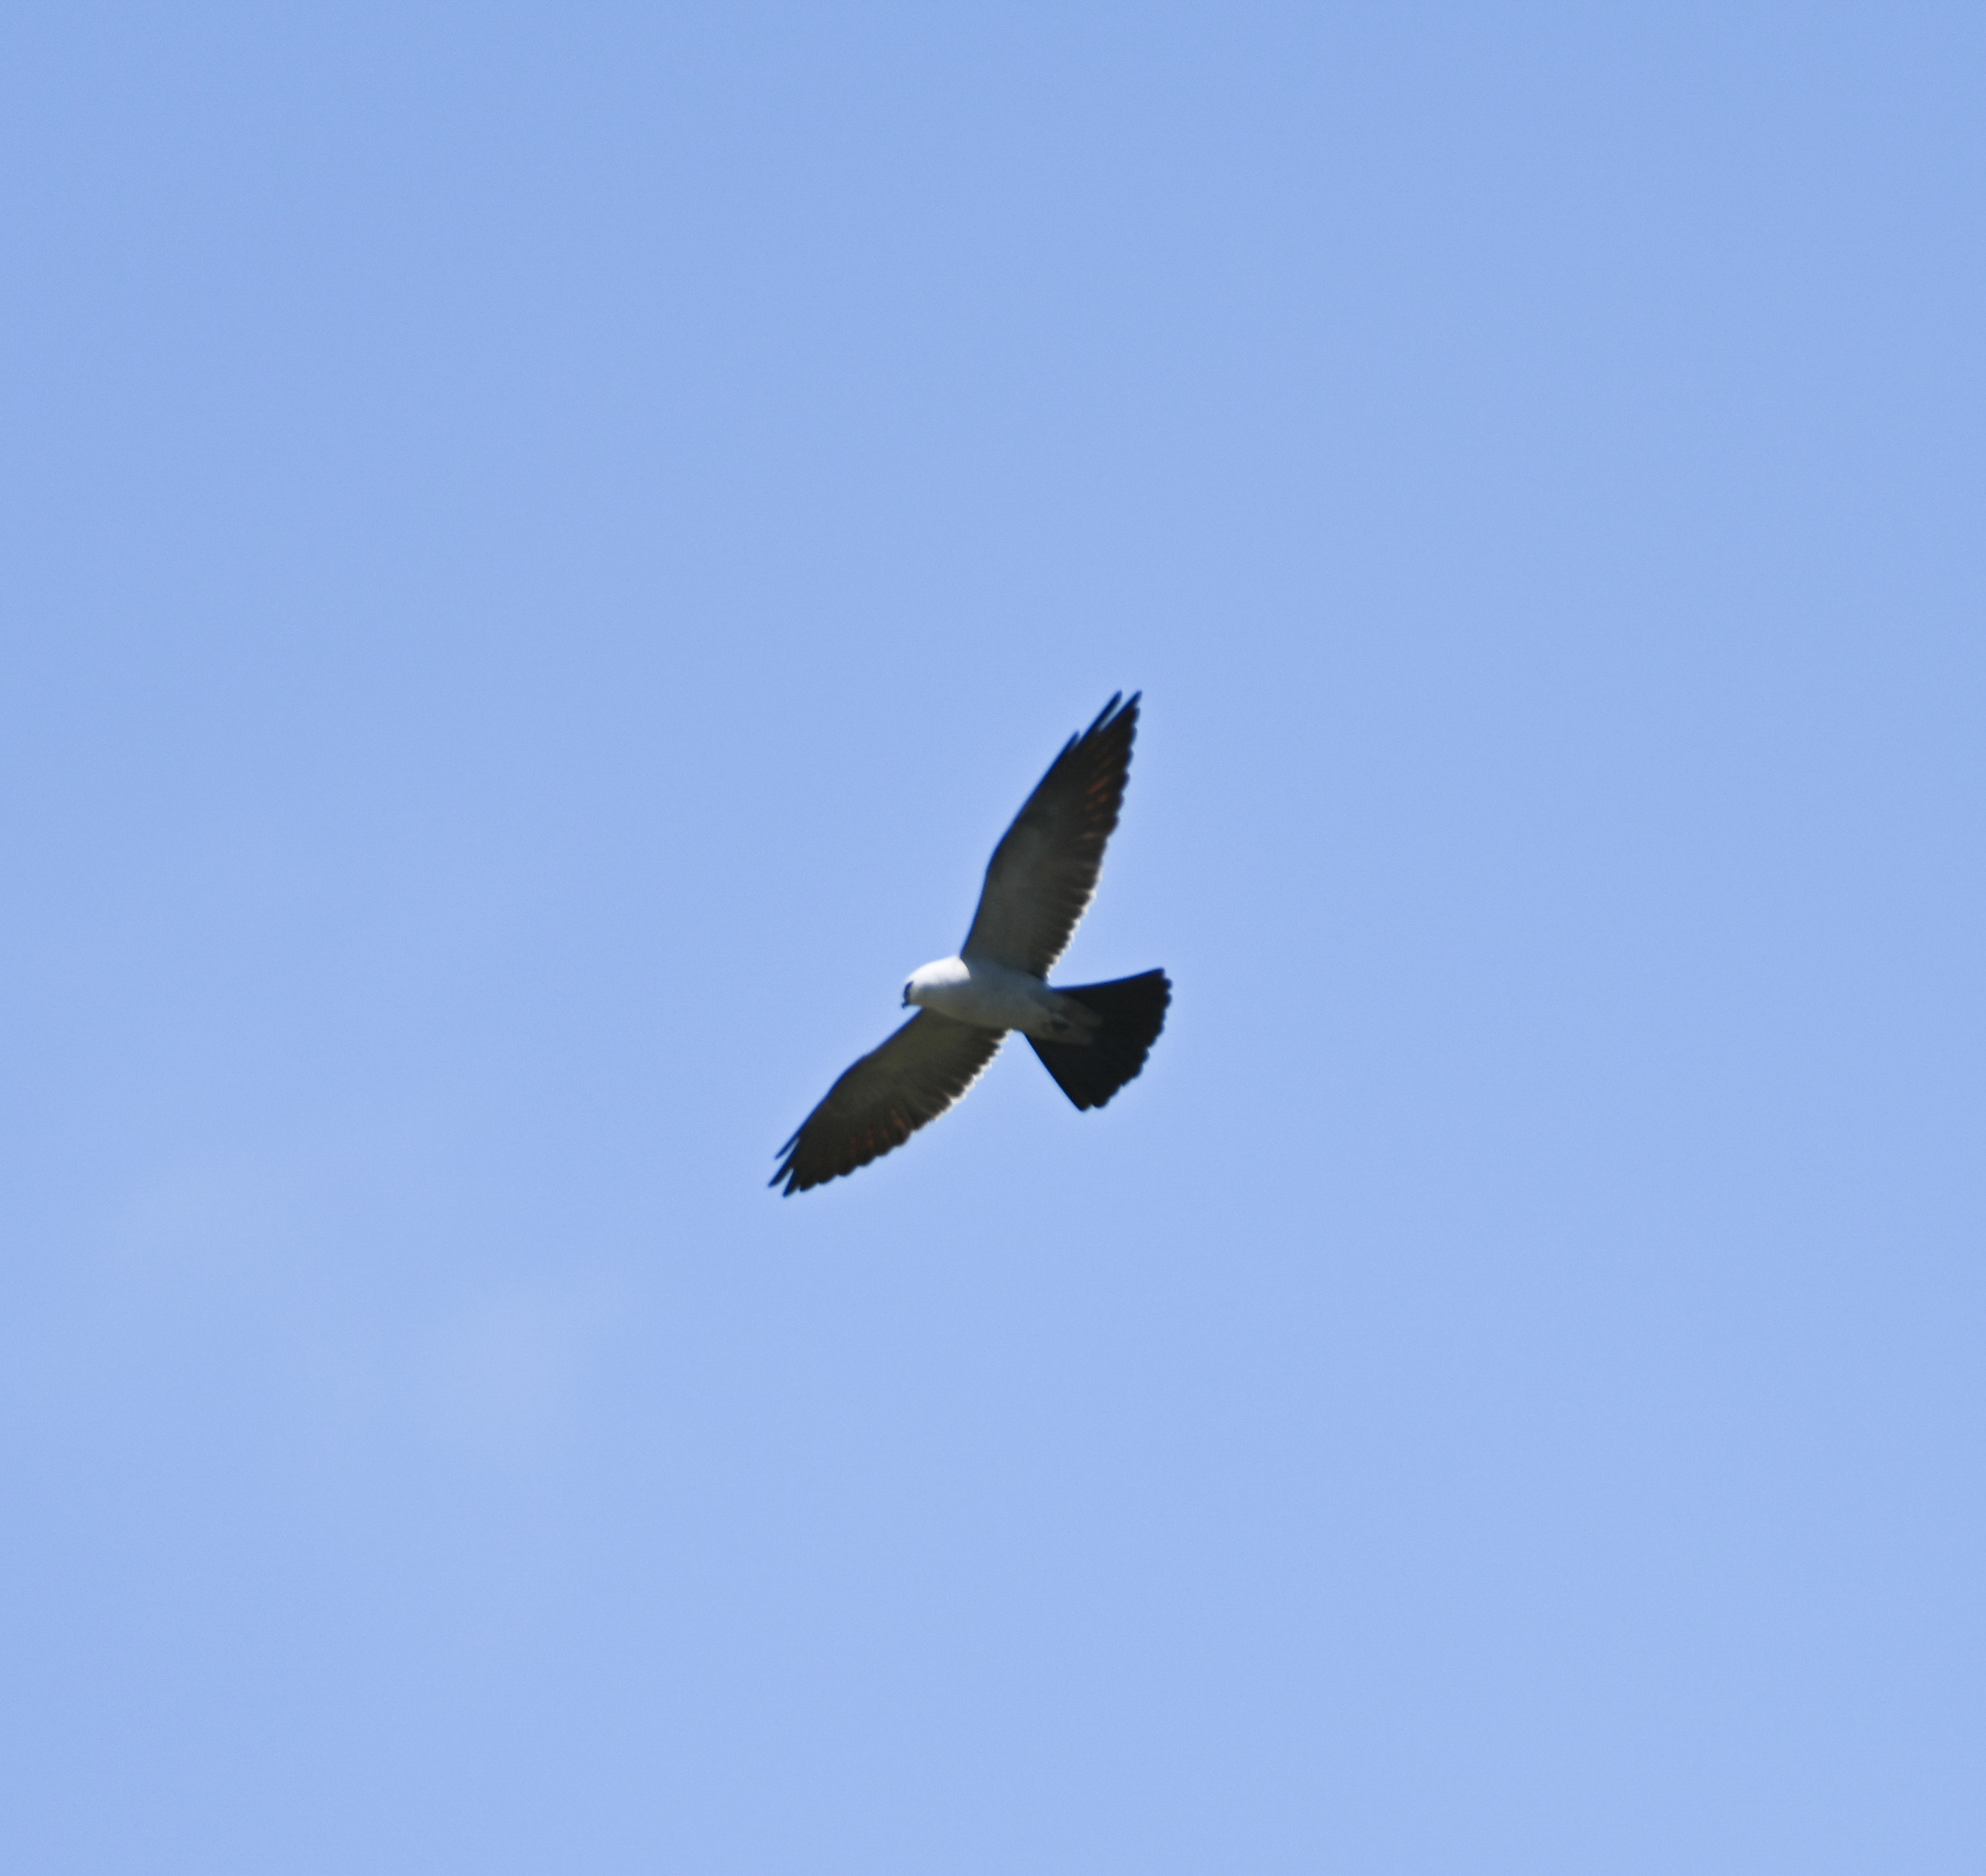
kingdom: Animalia
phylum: Chordata
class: Aves
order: Accipitriformes
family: Accipitridae
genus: Ictinia
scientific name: Ictinia mississippiensis
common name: Mississippi kite
